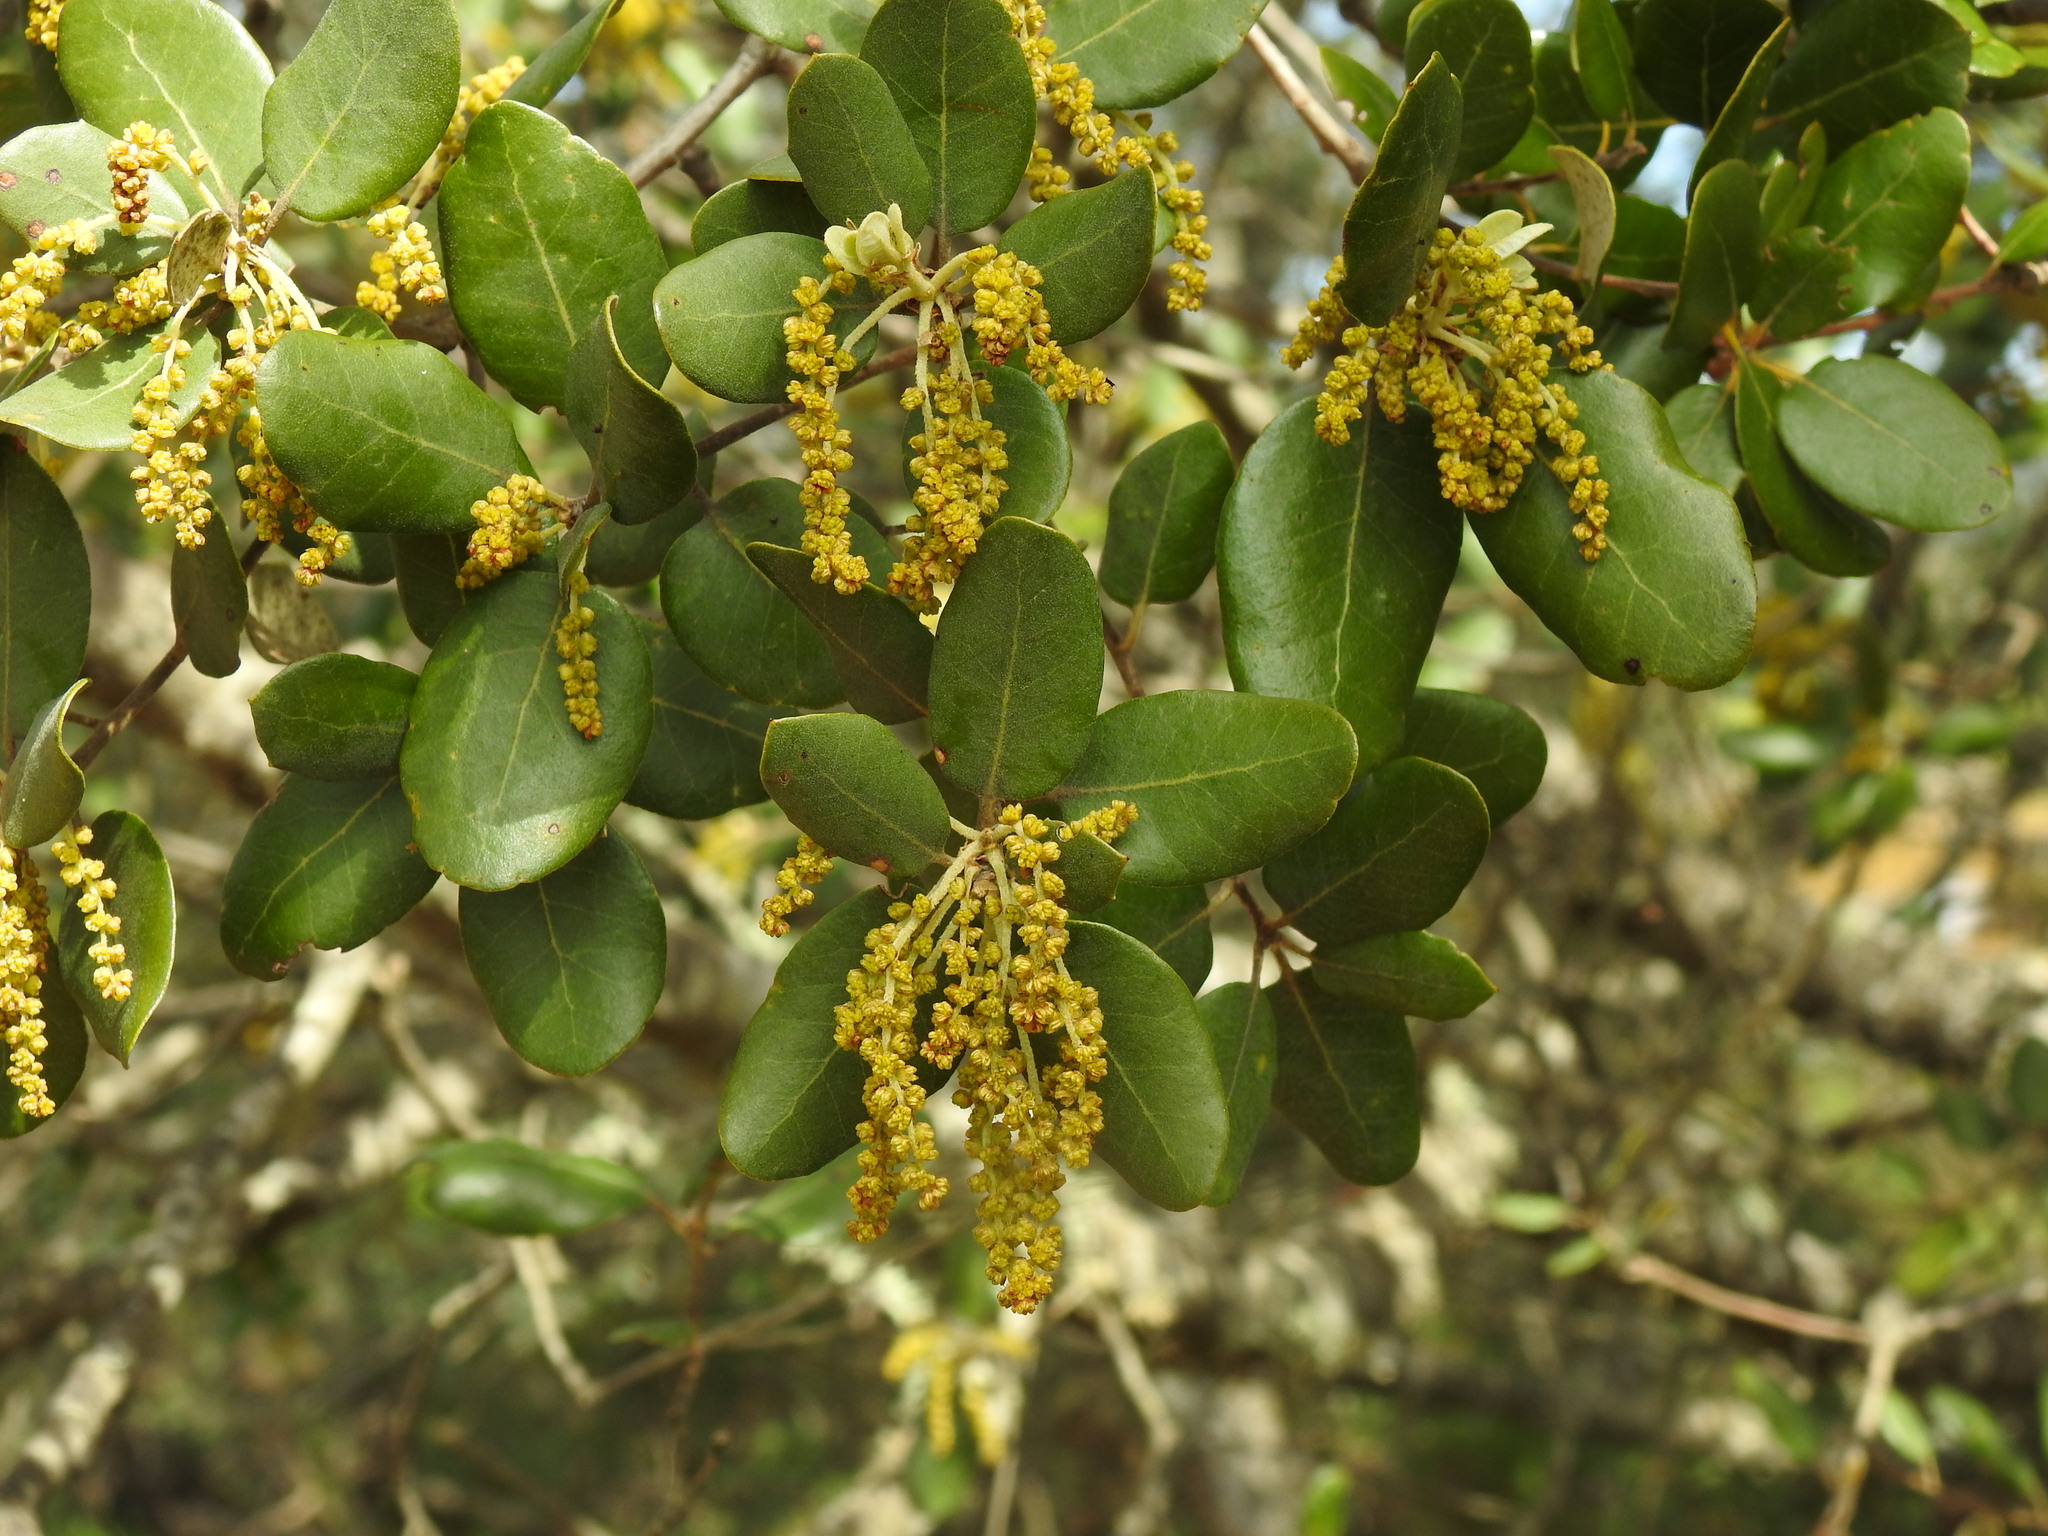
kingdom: Plantae
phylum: Tracheophyta
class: Magnoliopsida
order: Fagales
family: Fagaceae
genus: Quercus
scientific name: Quercus rotundifolia
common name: Holm oak
